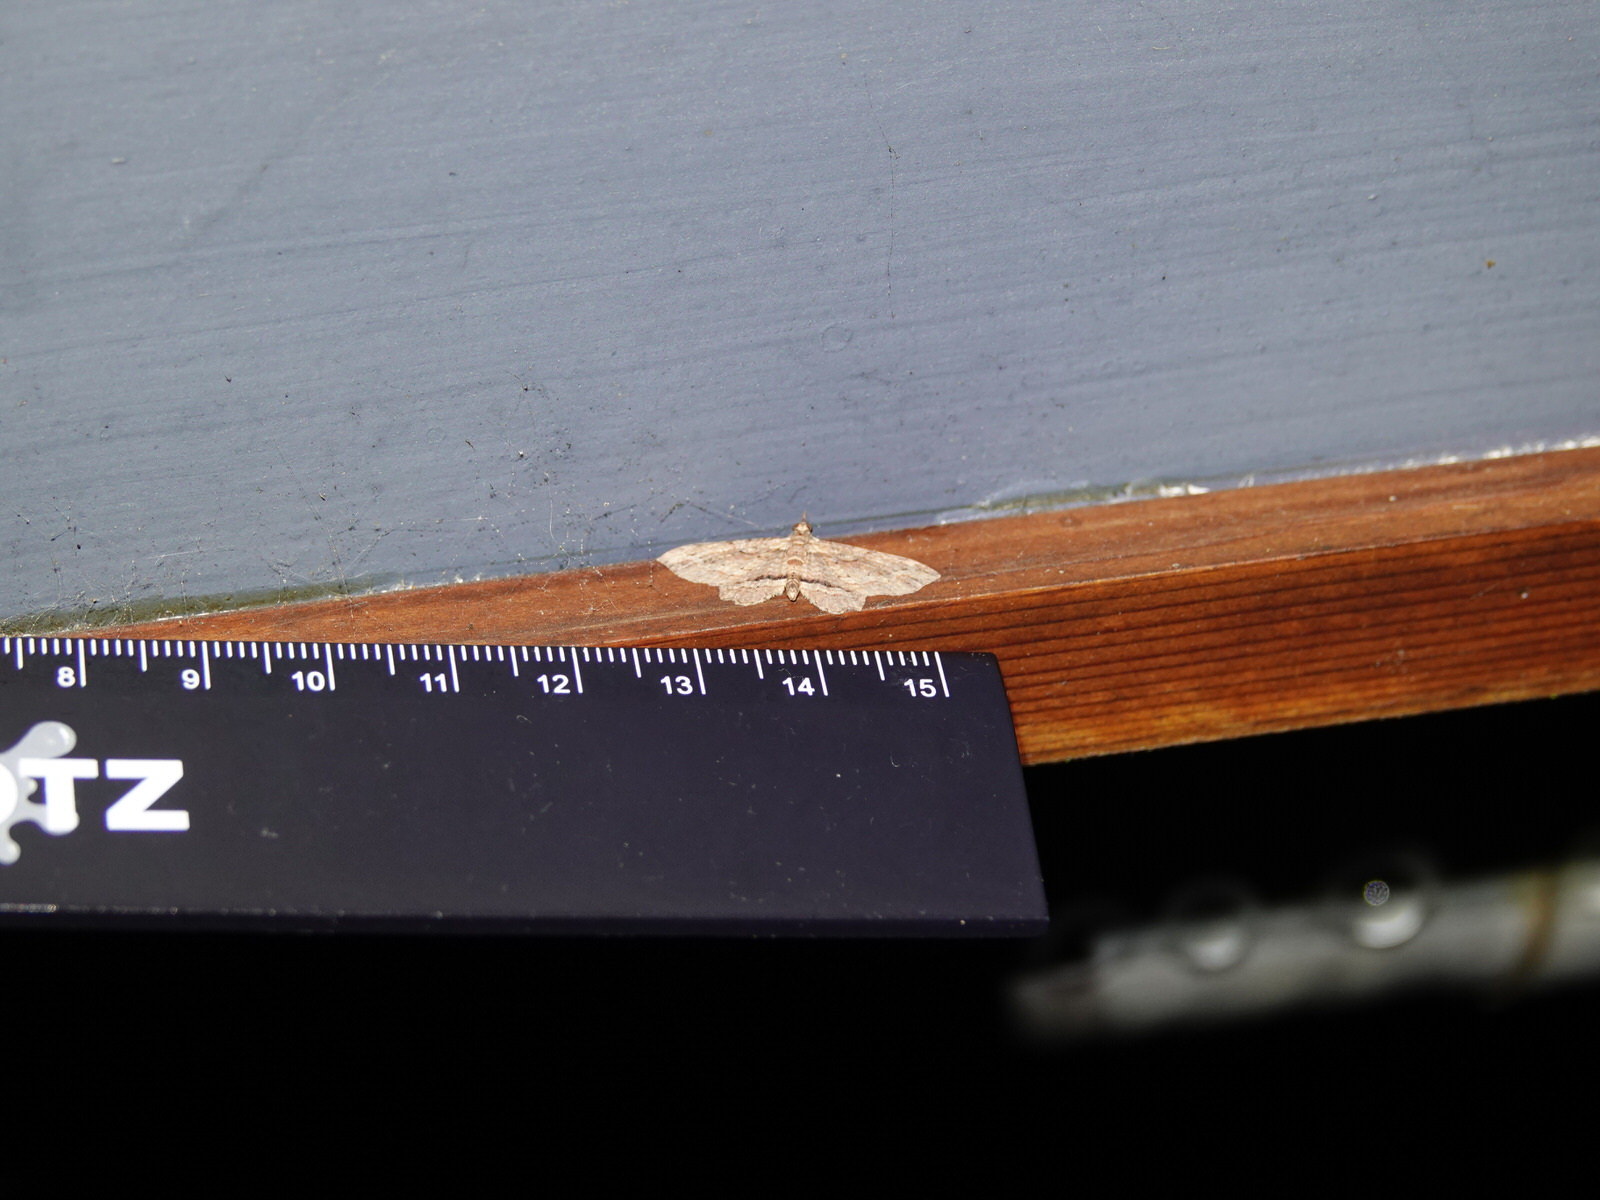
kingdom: Animalia
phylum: Arthropoda
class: Insecta
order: Lepidoptera
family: Geometridae
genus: Chloroclystis
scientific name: Chloroclystis filata
